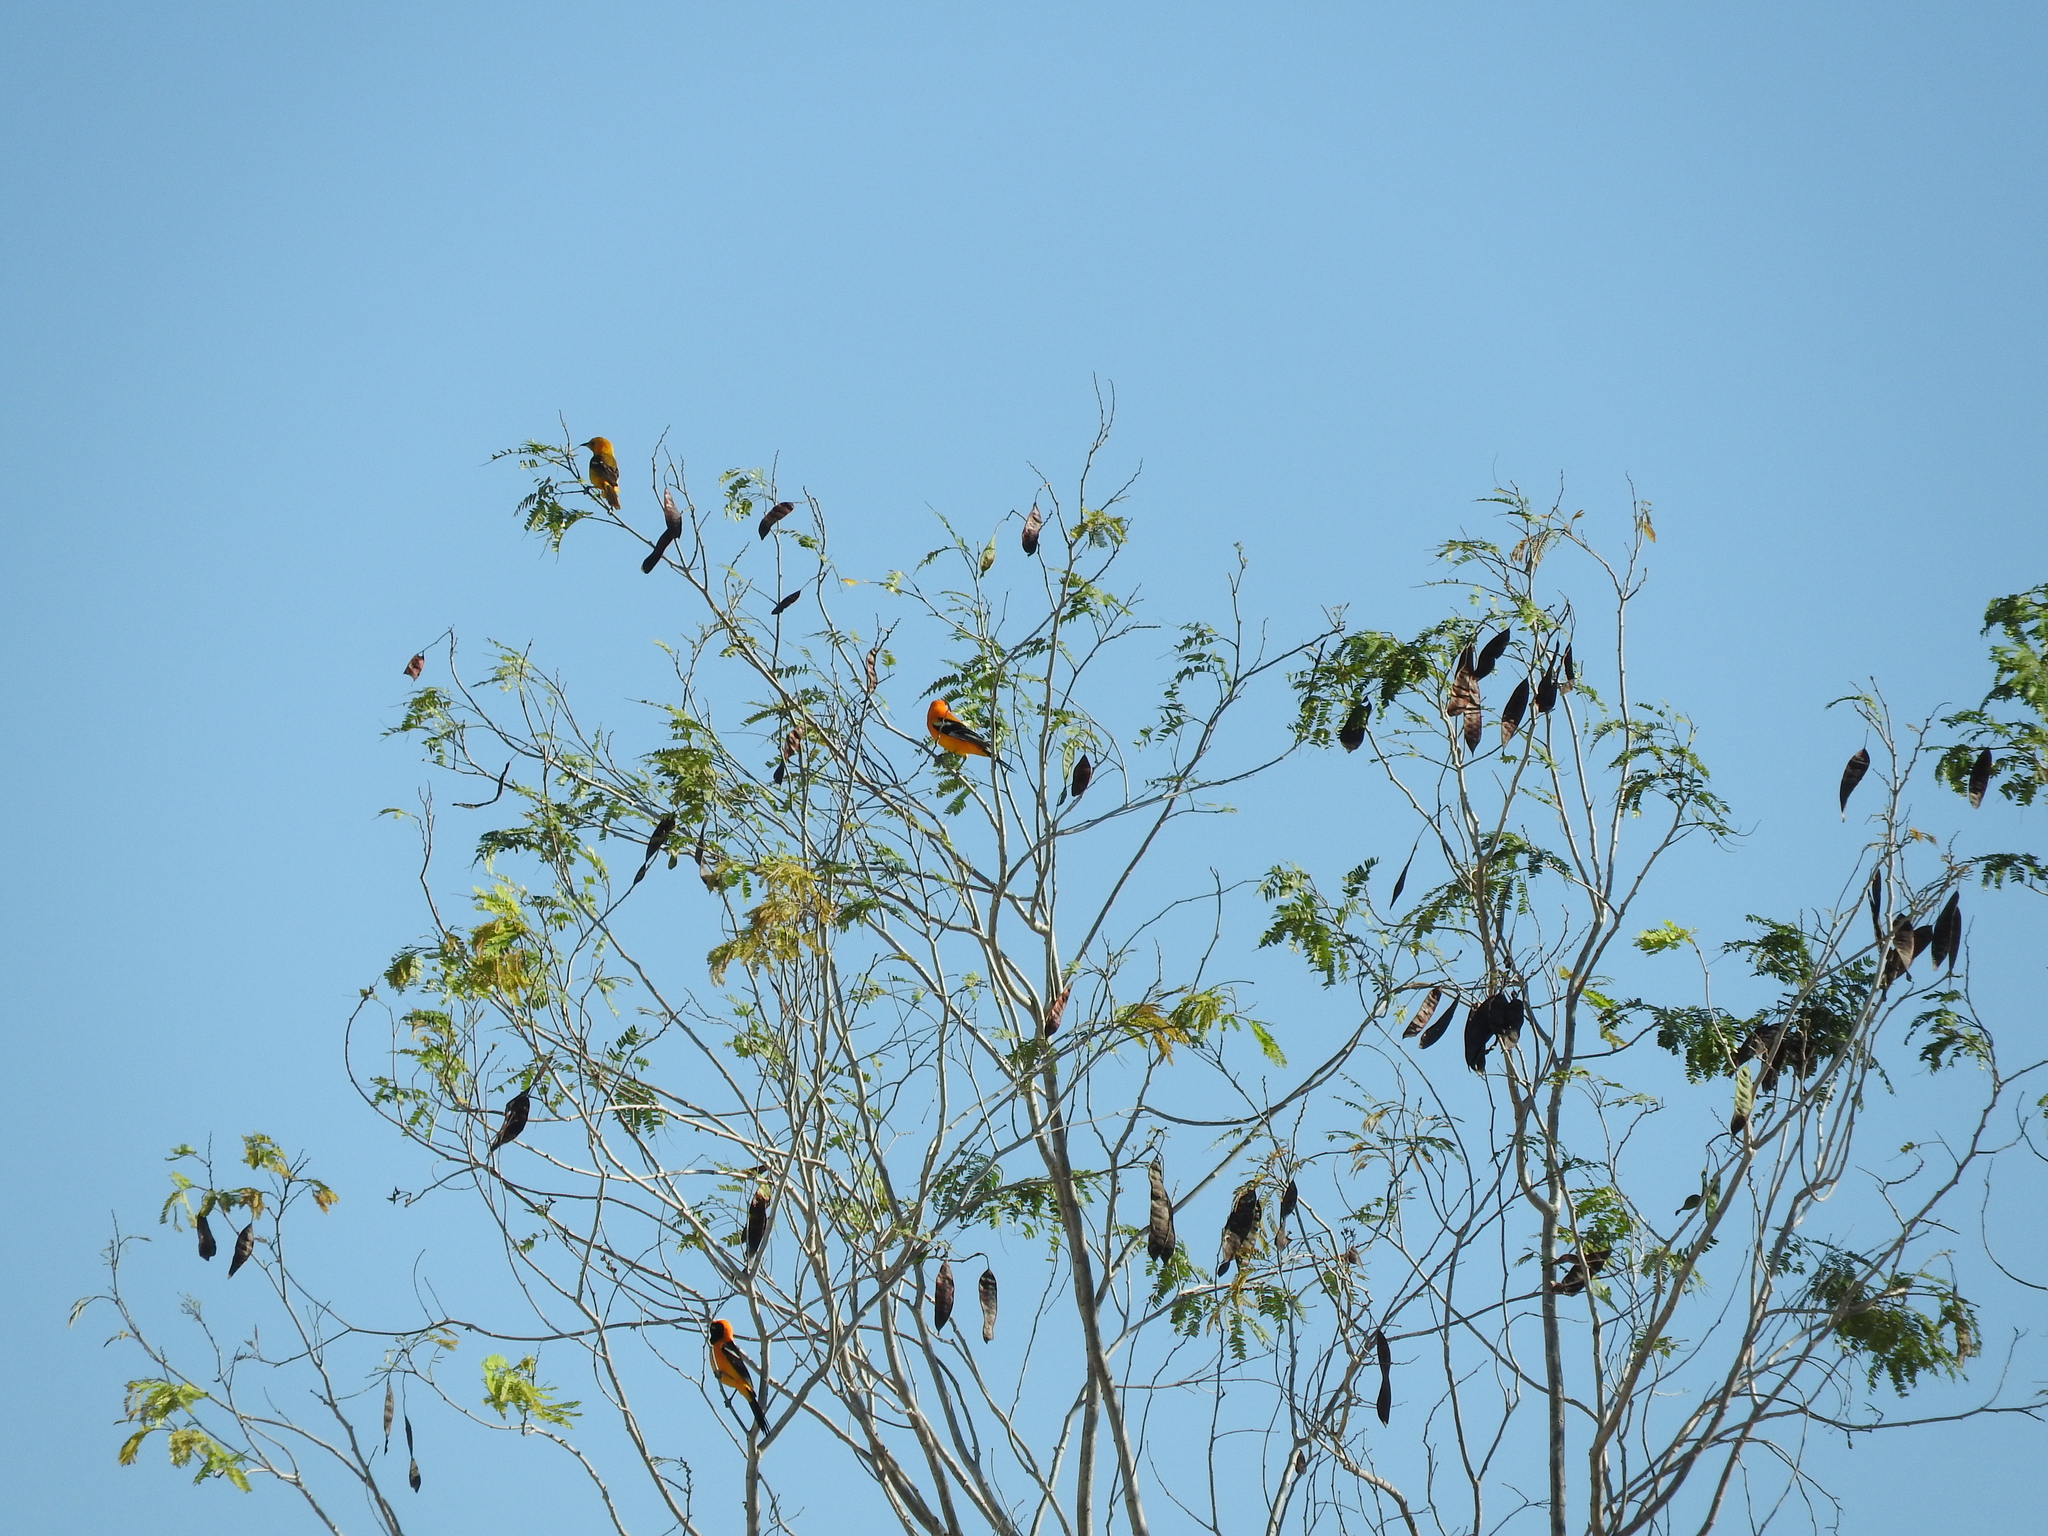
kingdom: Animalia
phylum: Chordata
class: Aves
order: Passeriformes
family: Icteridae
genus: Icterus
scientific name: Icterus auratus
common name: Orange oriole
